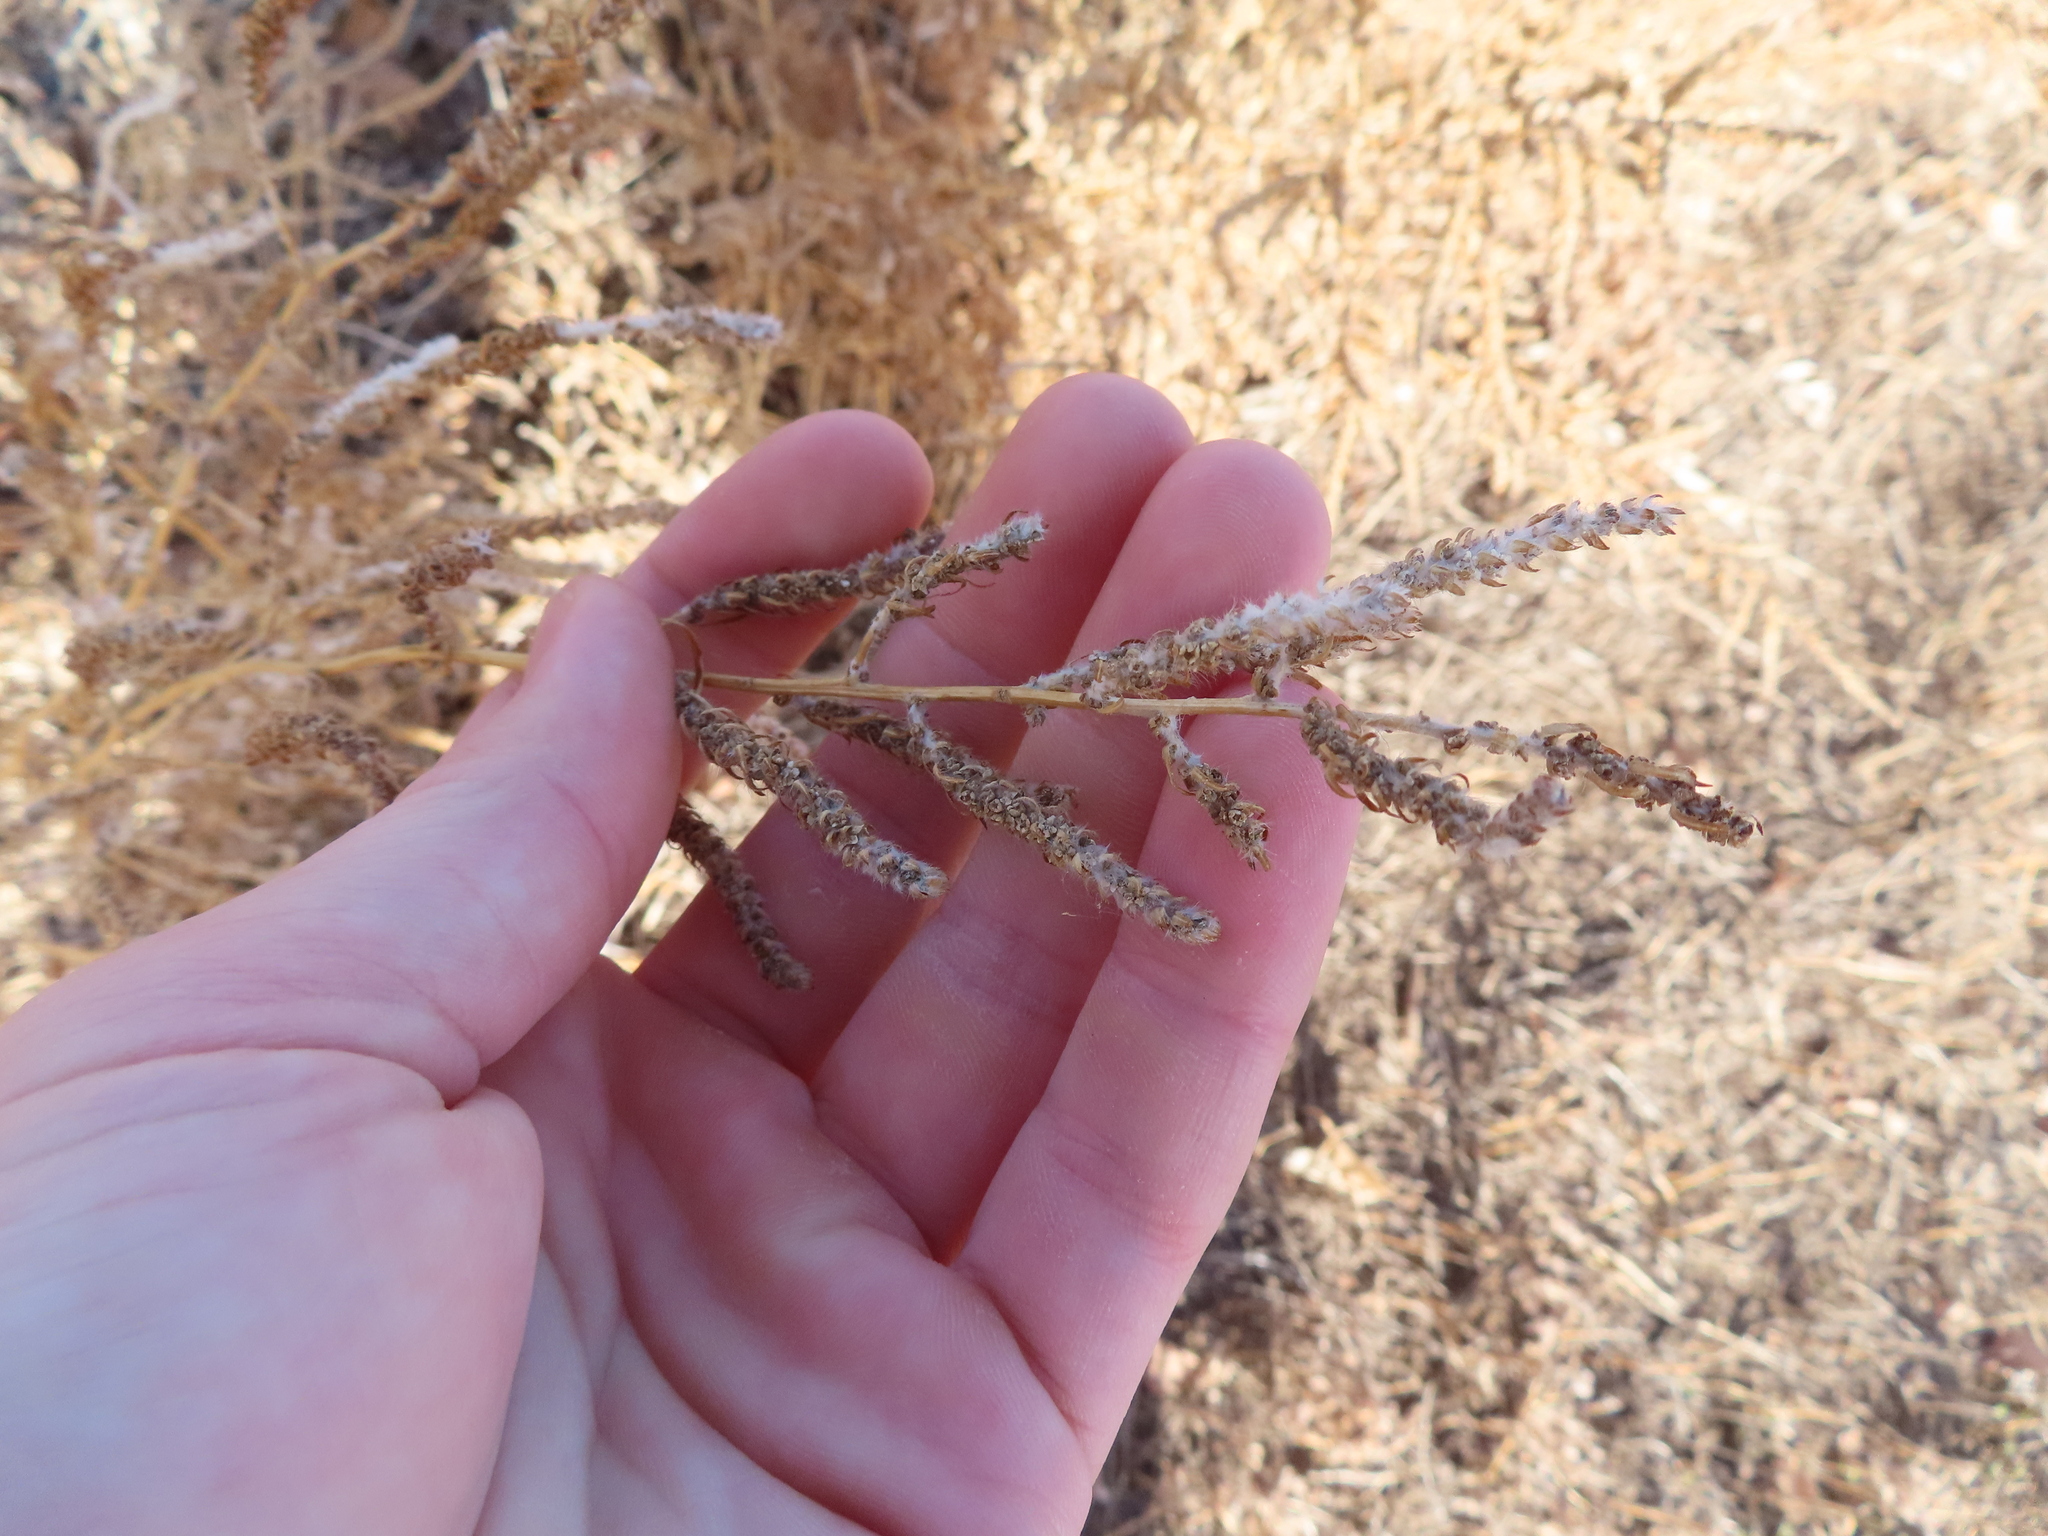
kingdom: Plantae
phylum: Tracheophyta
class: Magnoliopsida
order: Caryophyllales
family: Amaranthaceae
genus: Bassia
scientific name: Bassia scoparia
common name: Belvedere
